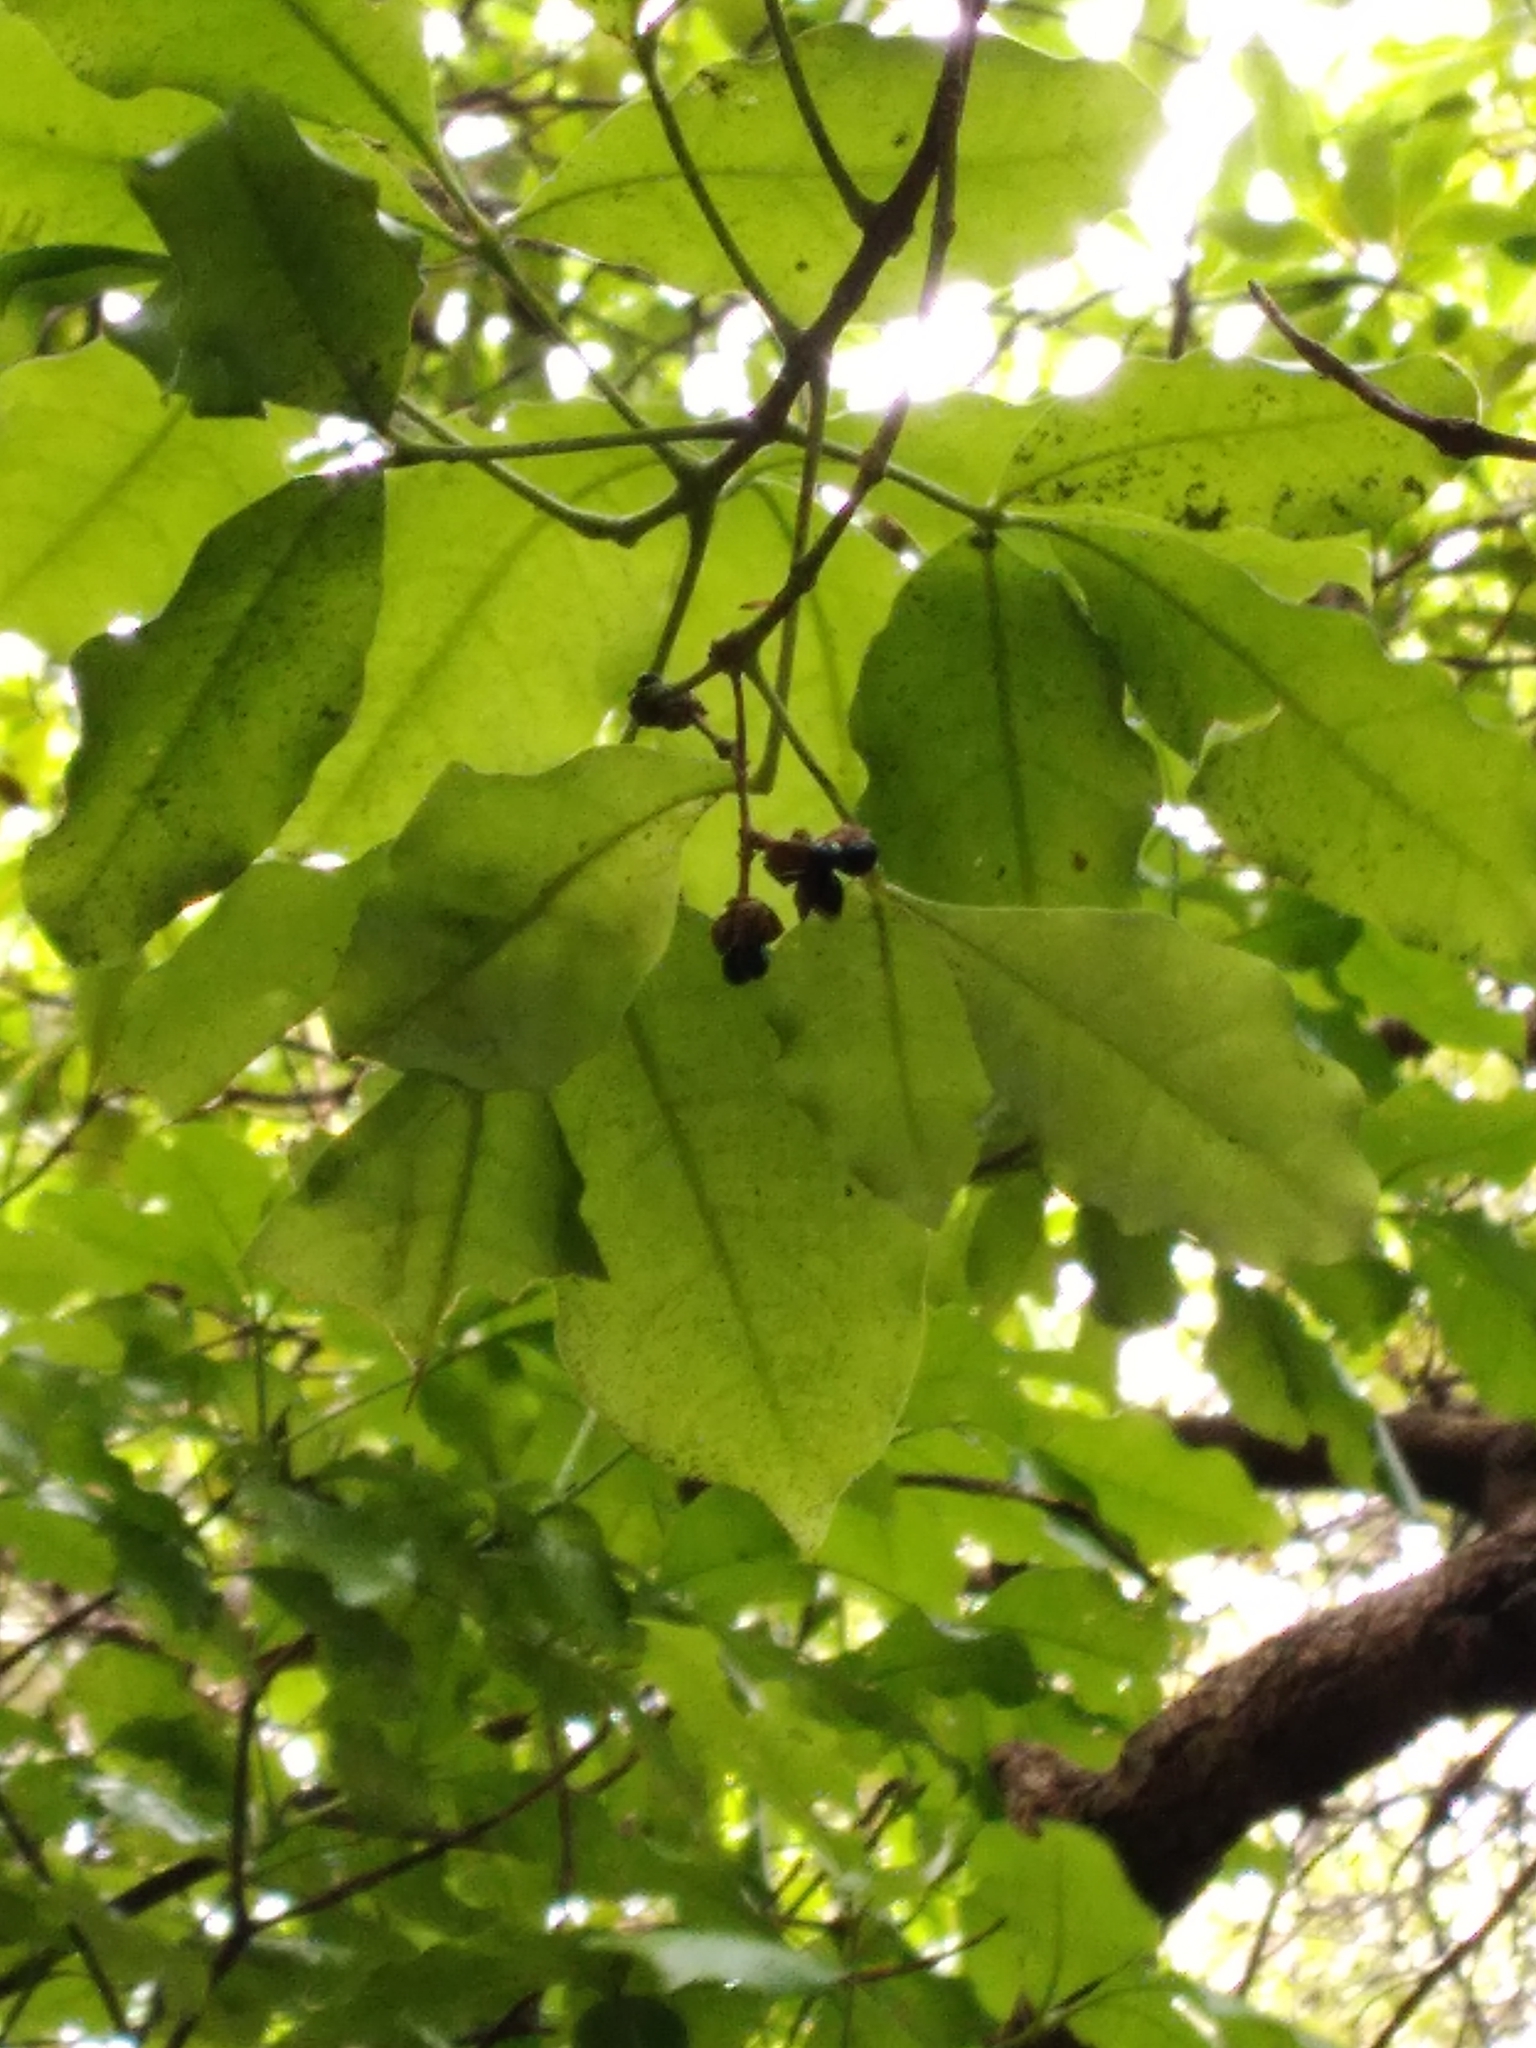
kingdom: Plantae
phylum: Tracheophyta
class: Magnoliopsida
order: Sapindales
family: Rutaceae
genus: Melicope
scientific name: Melicope ternata
